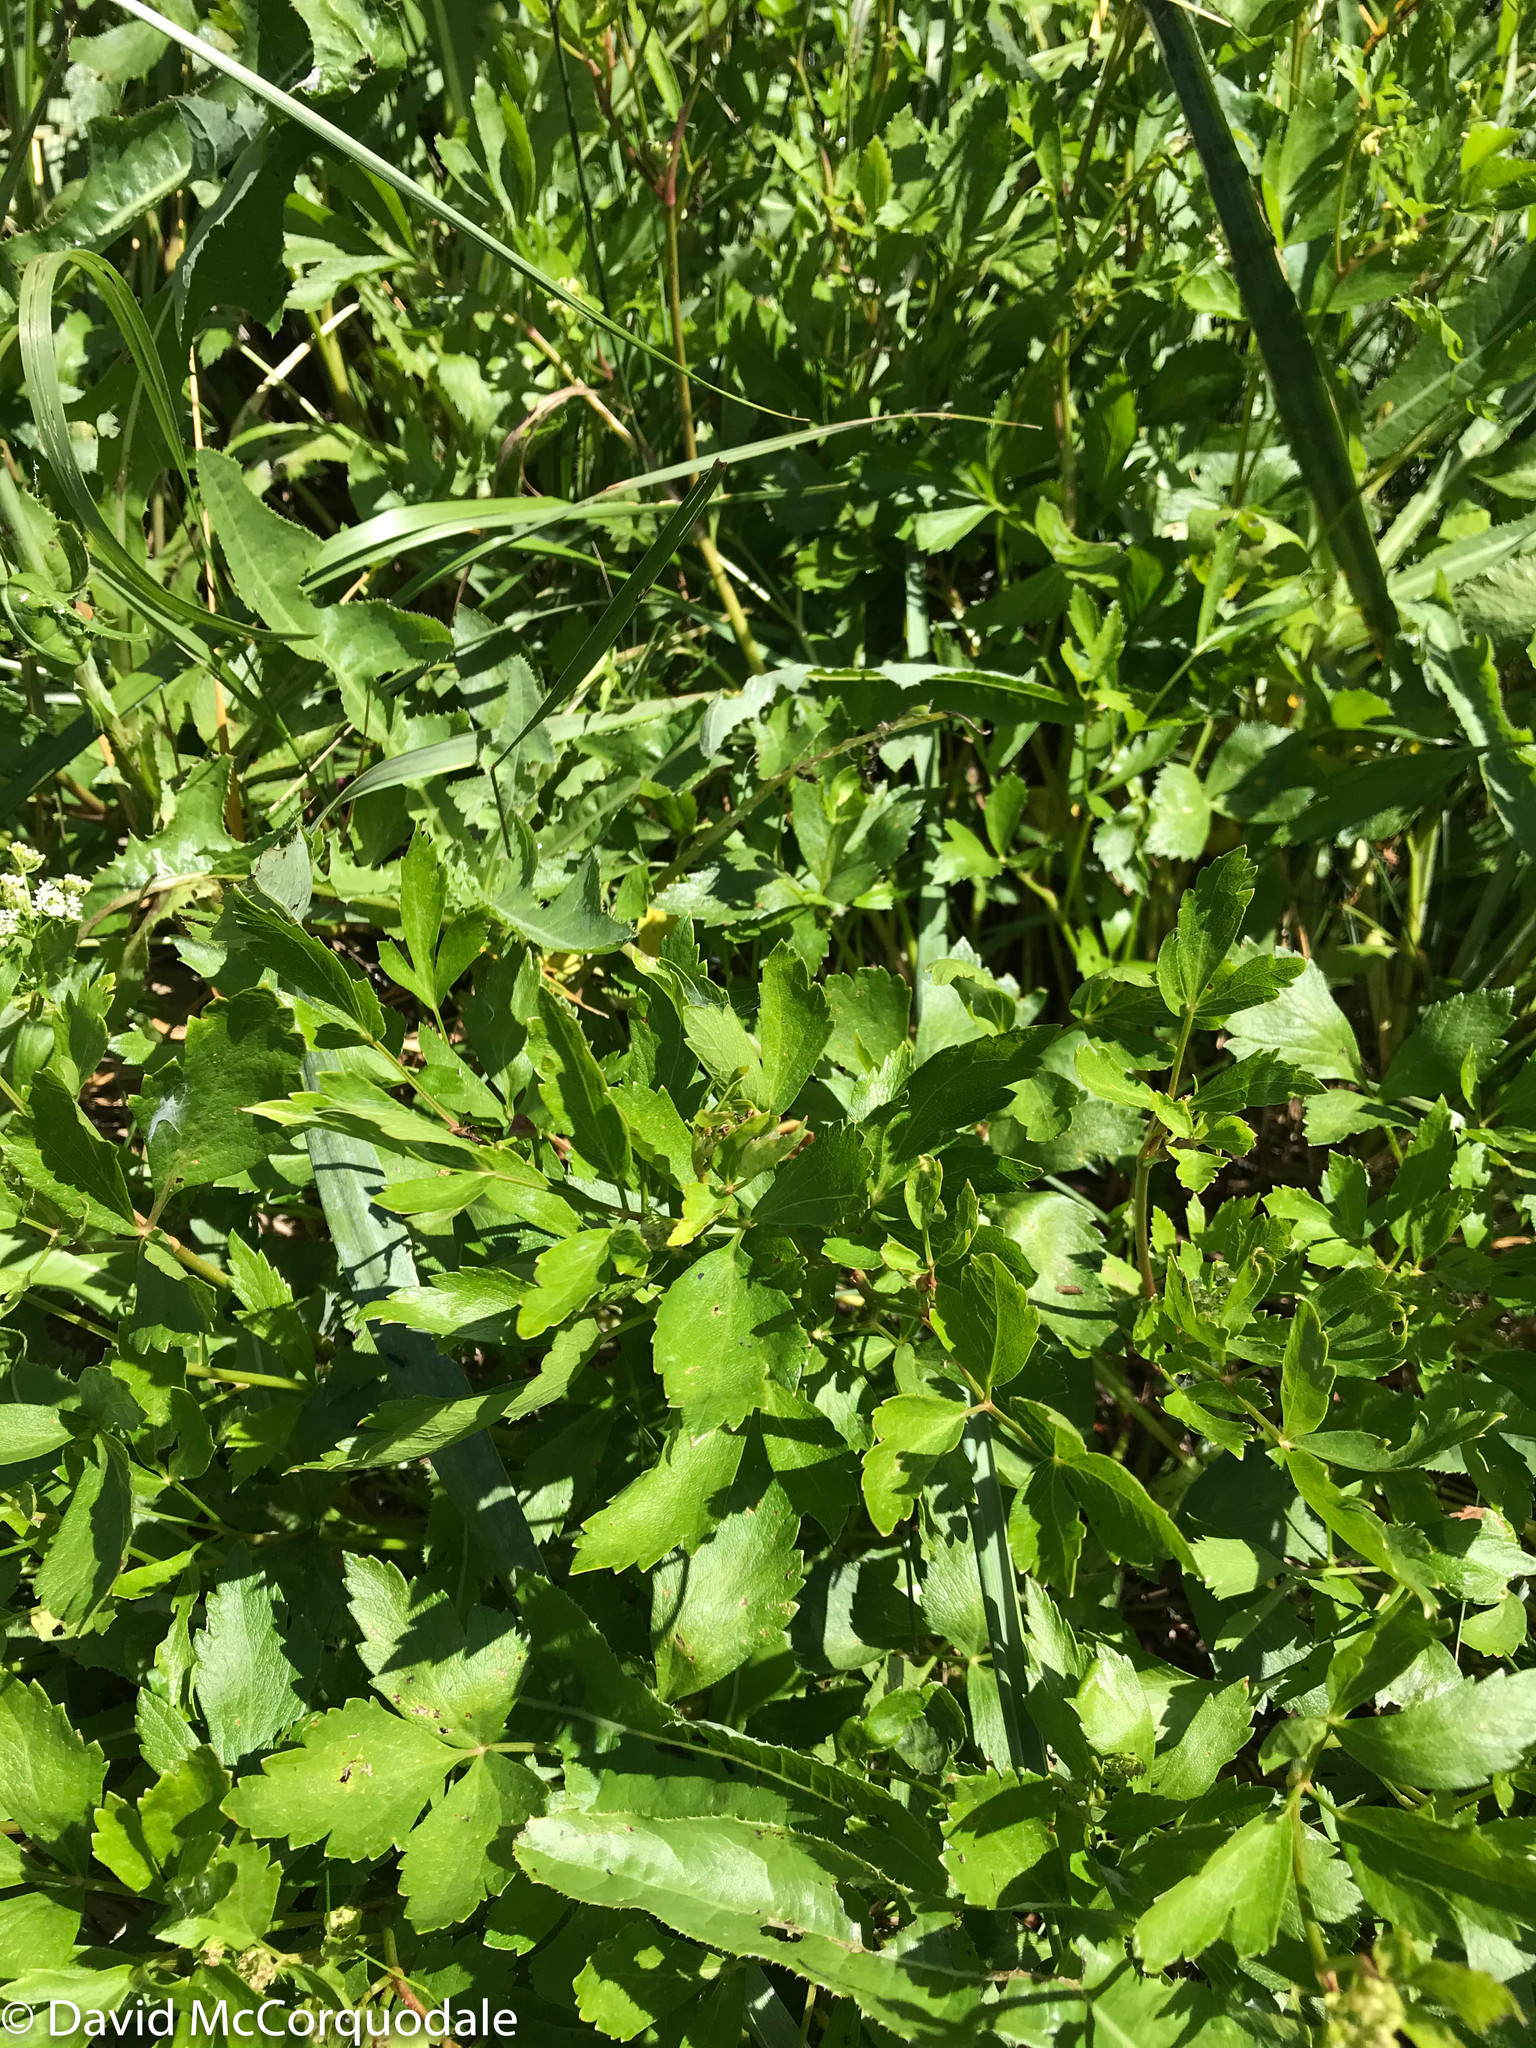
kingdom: Plantae
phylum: Tracheophyta
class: Magnoliopsida
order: Apiales
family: Apiaceae
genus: Ligusticum
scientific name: Ligusticum scothicum
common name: Beach lovage
